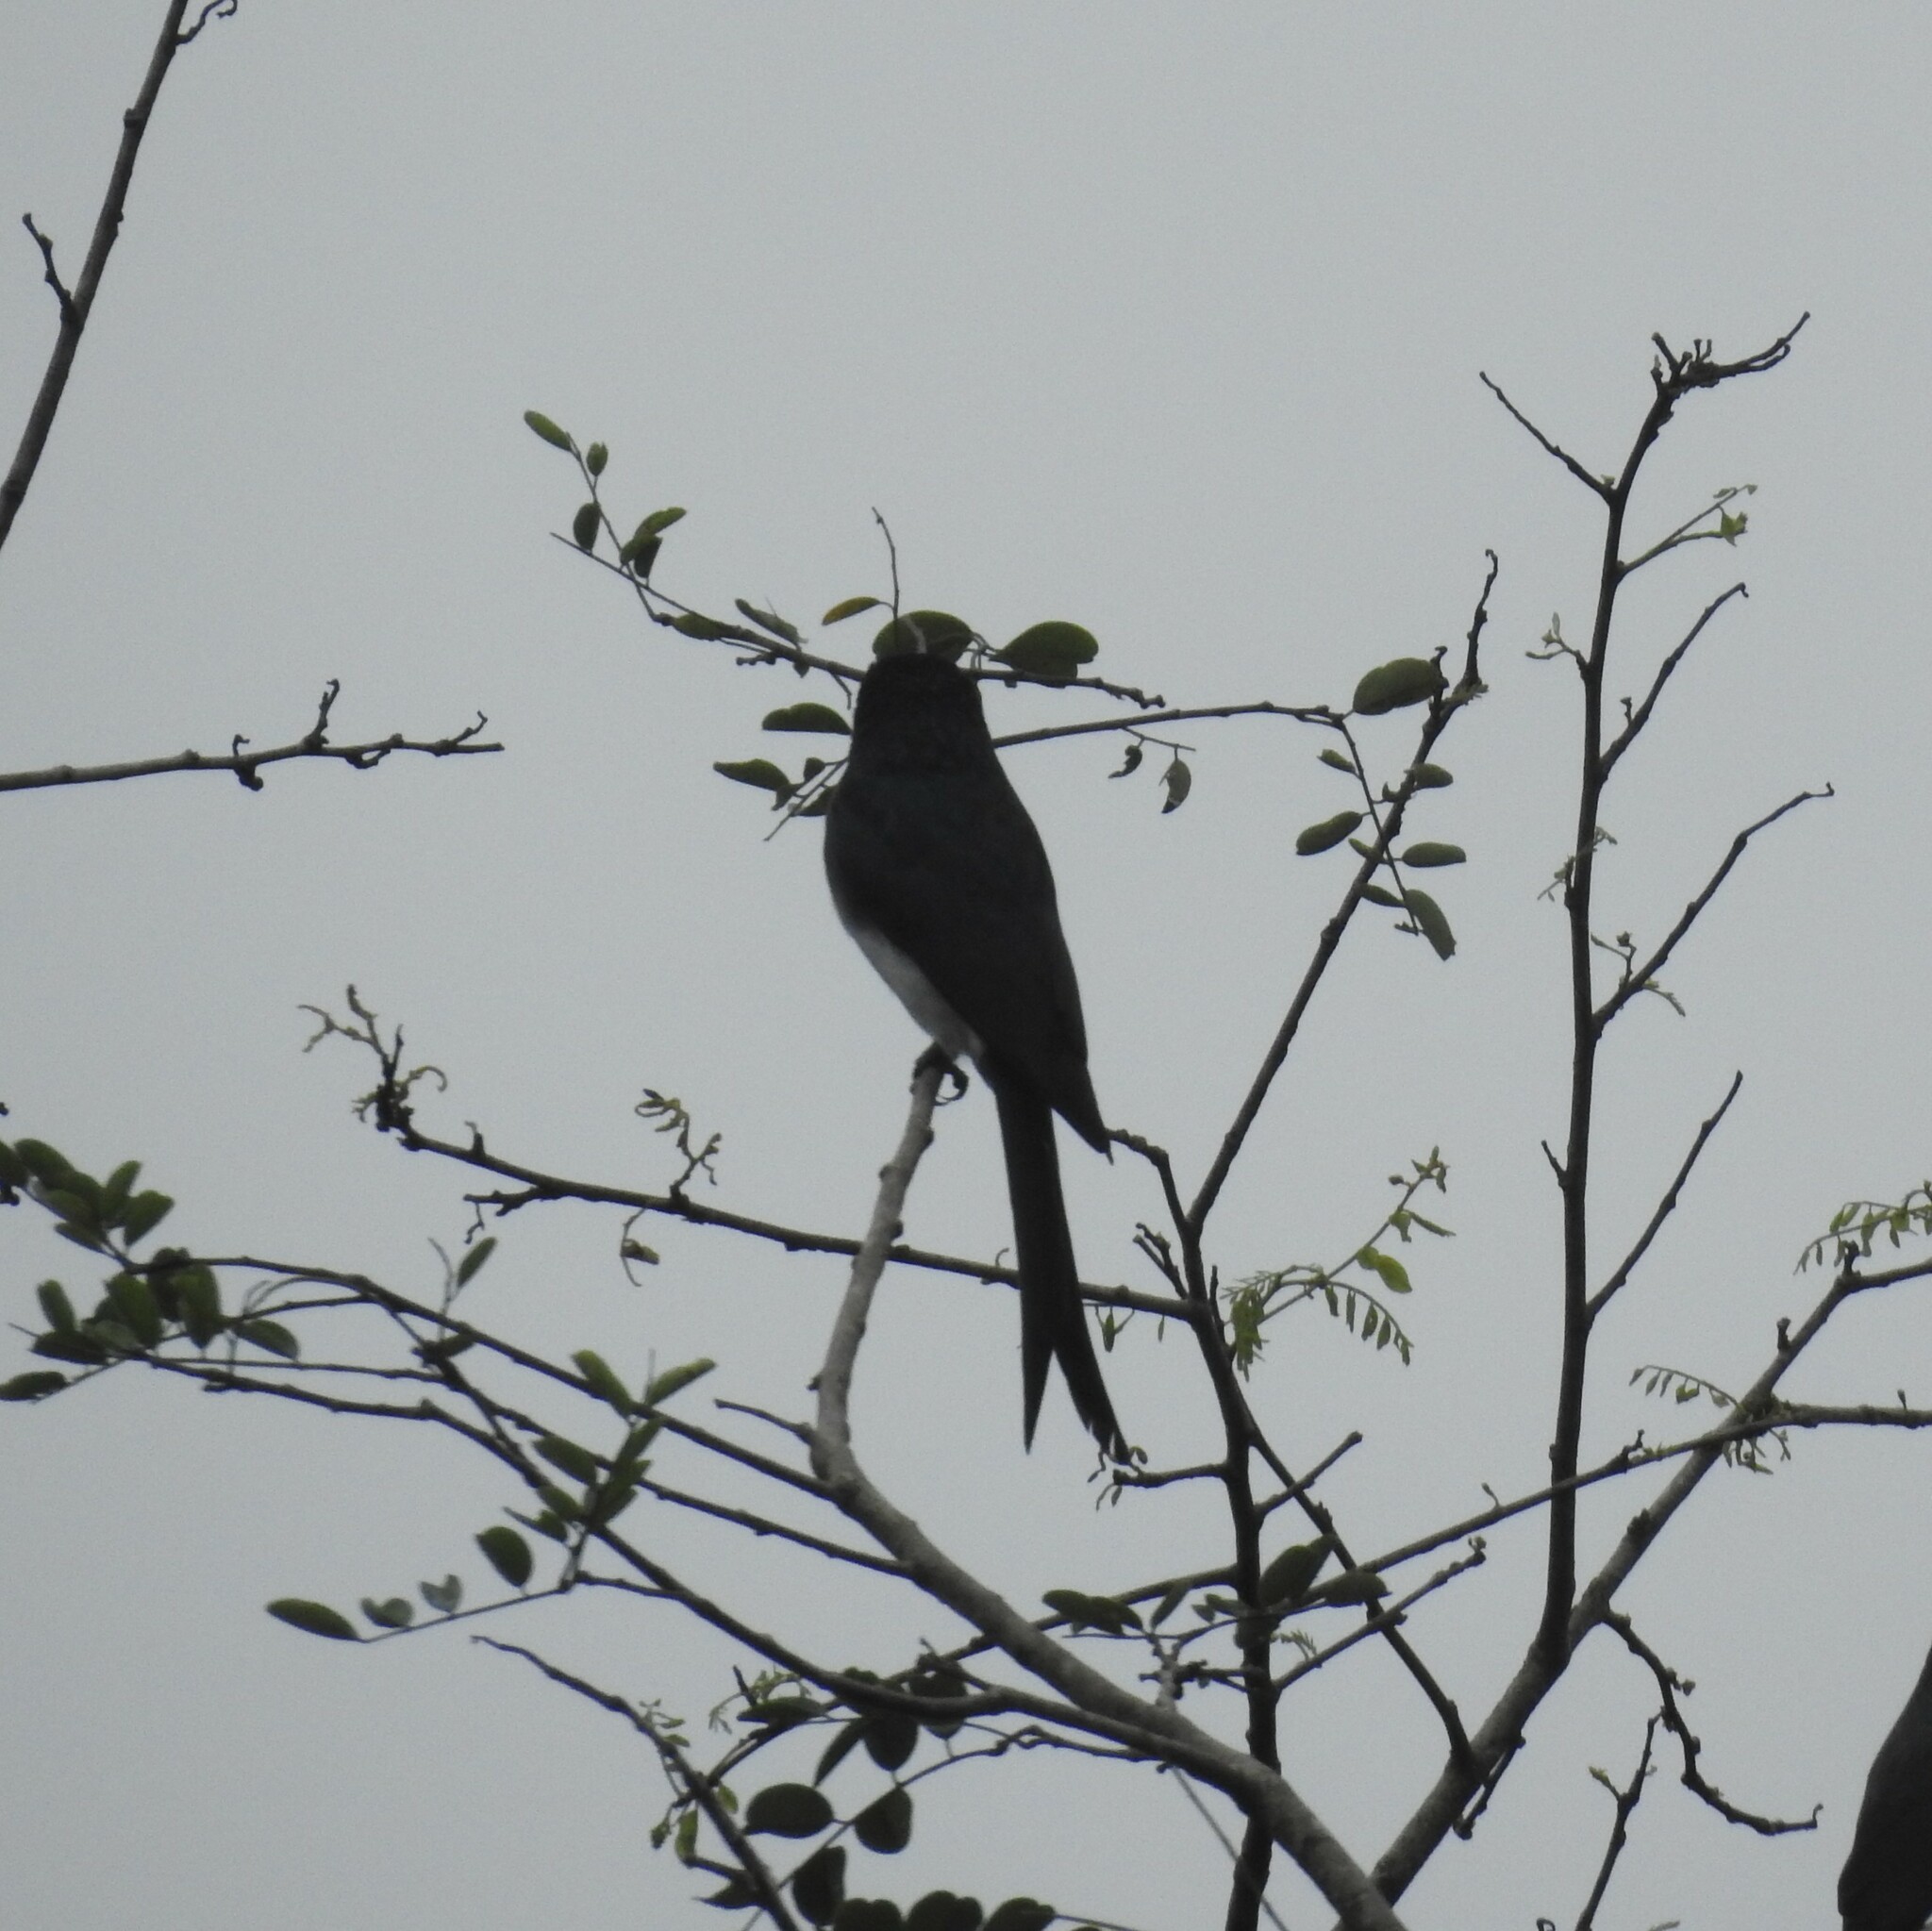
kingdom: Animalia
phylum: Chordata
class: Aves
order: Passeriformes
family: Dicruridae
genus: Dicrurus
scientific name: Dicrurus caerulescens
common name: White-bellied drongo
